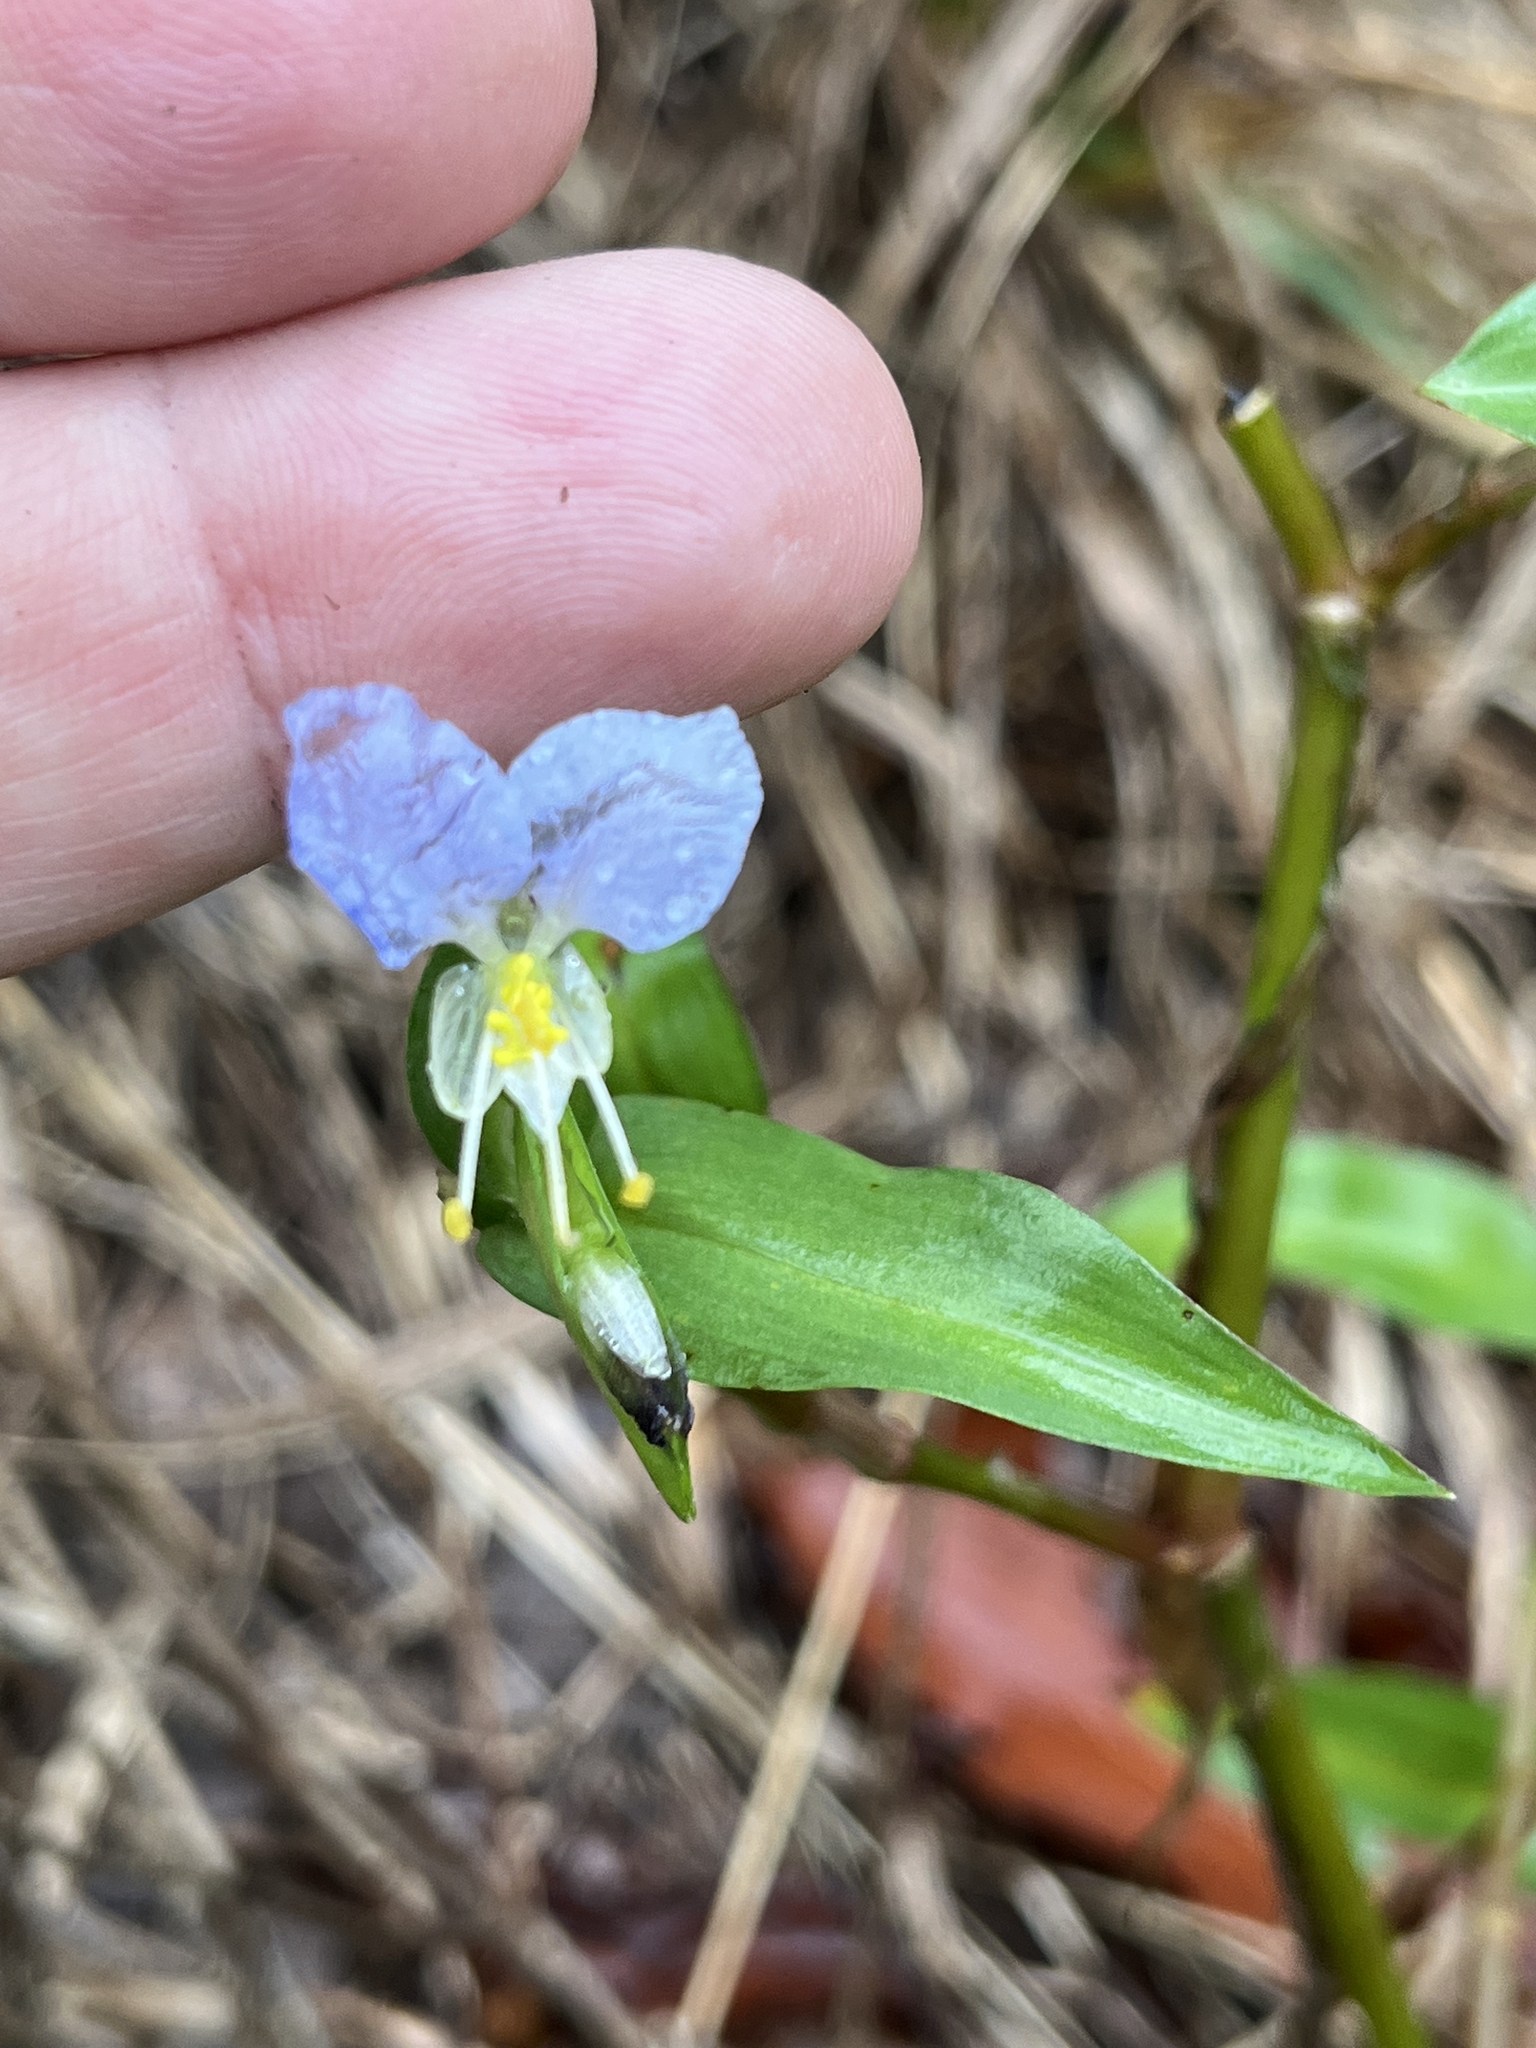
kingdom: Plantae
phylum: Tracheophyta
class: Liliopsida
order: Commelinales
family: Commelinaceae
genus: Commelina
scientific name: Commelina communis
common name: Asiatic dayflower
